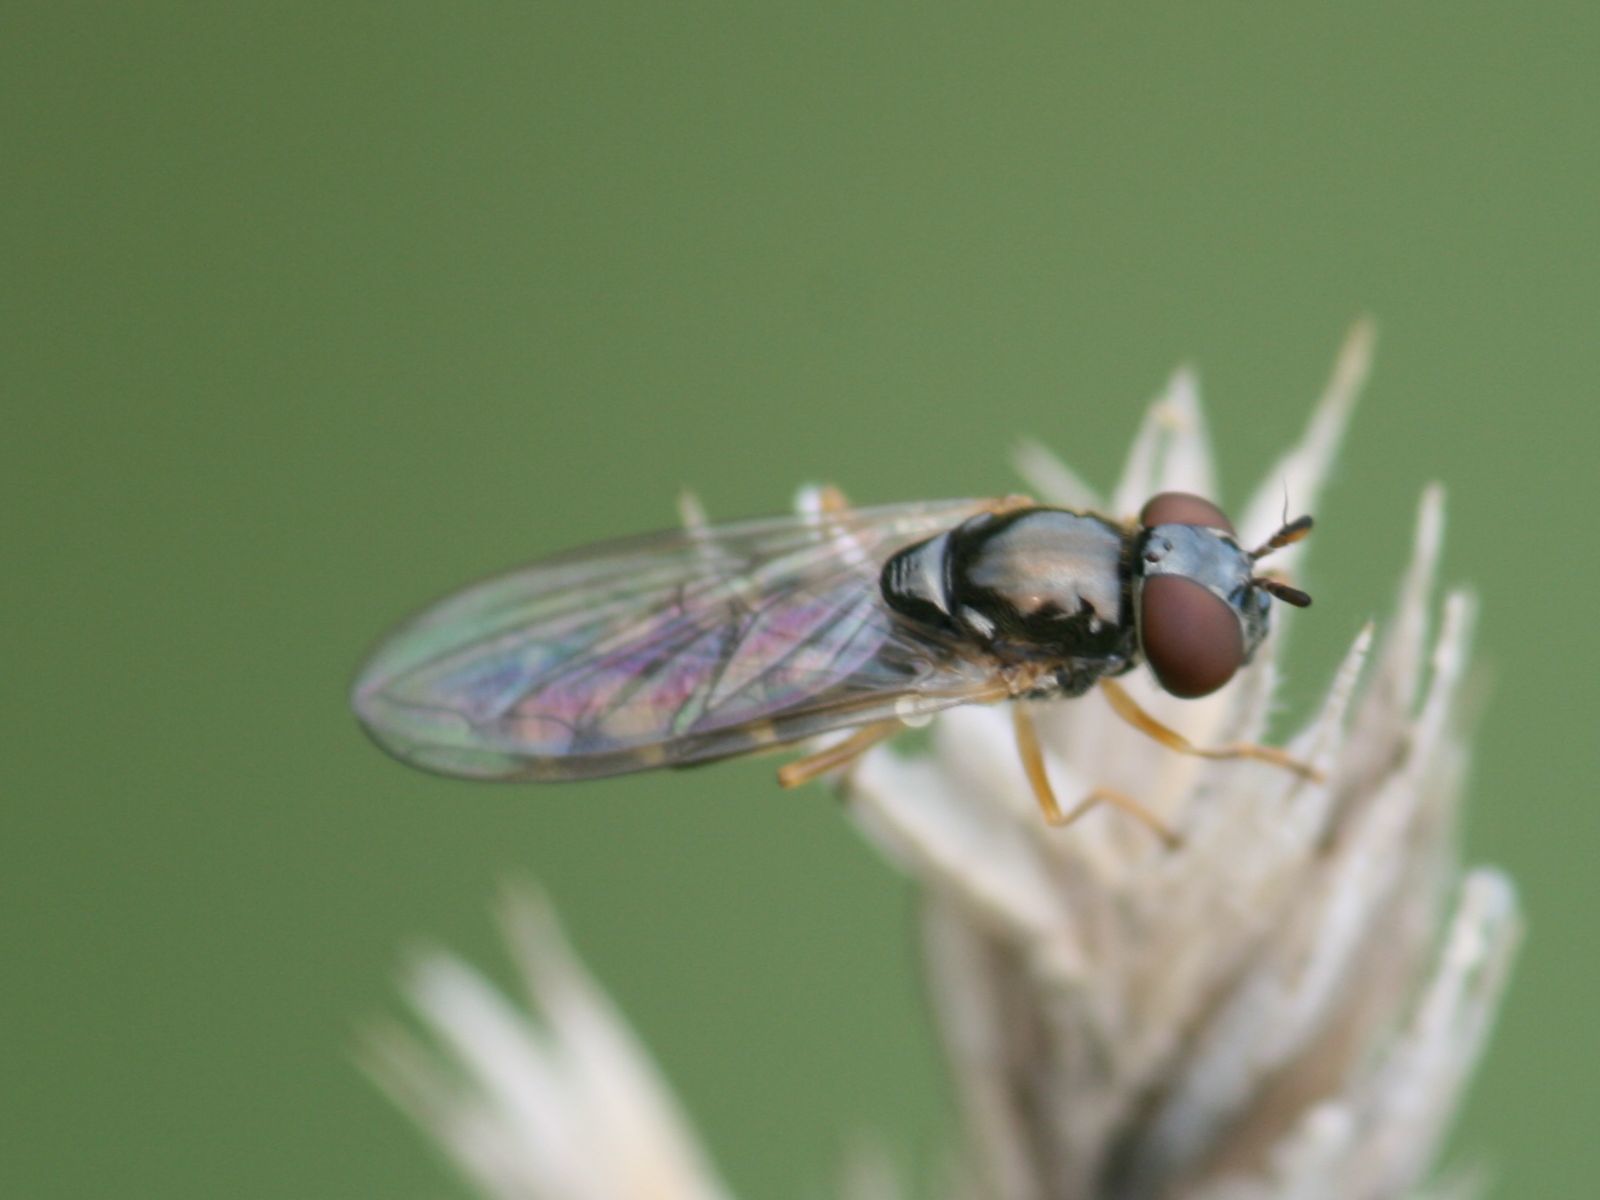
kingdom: Animalia
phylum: Arthropoda
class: Insecta
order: Diptera
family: Syrphidae
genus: Melanostoma
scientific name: Melanostoma mellina
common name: Hover fly
